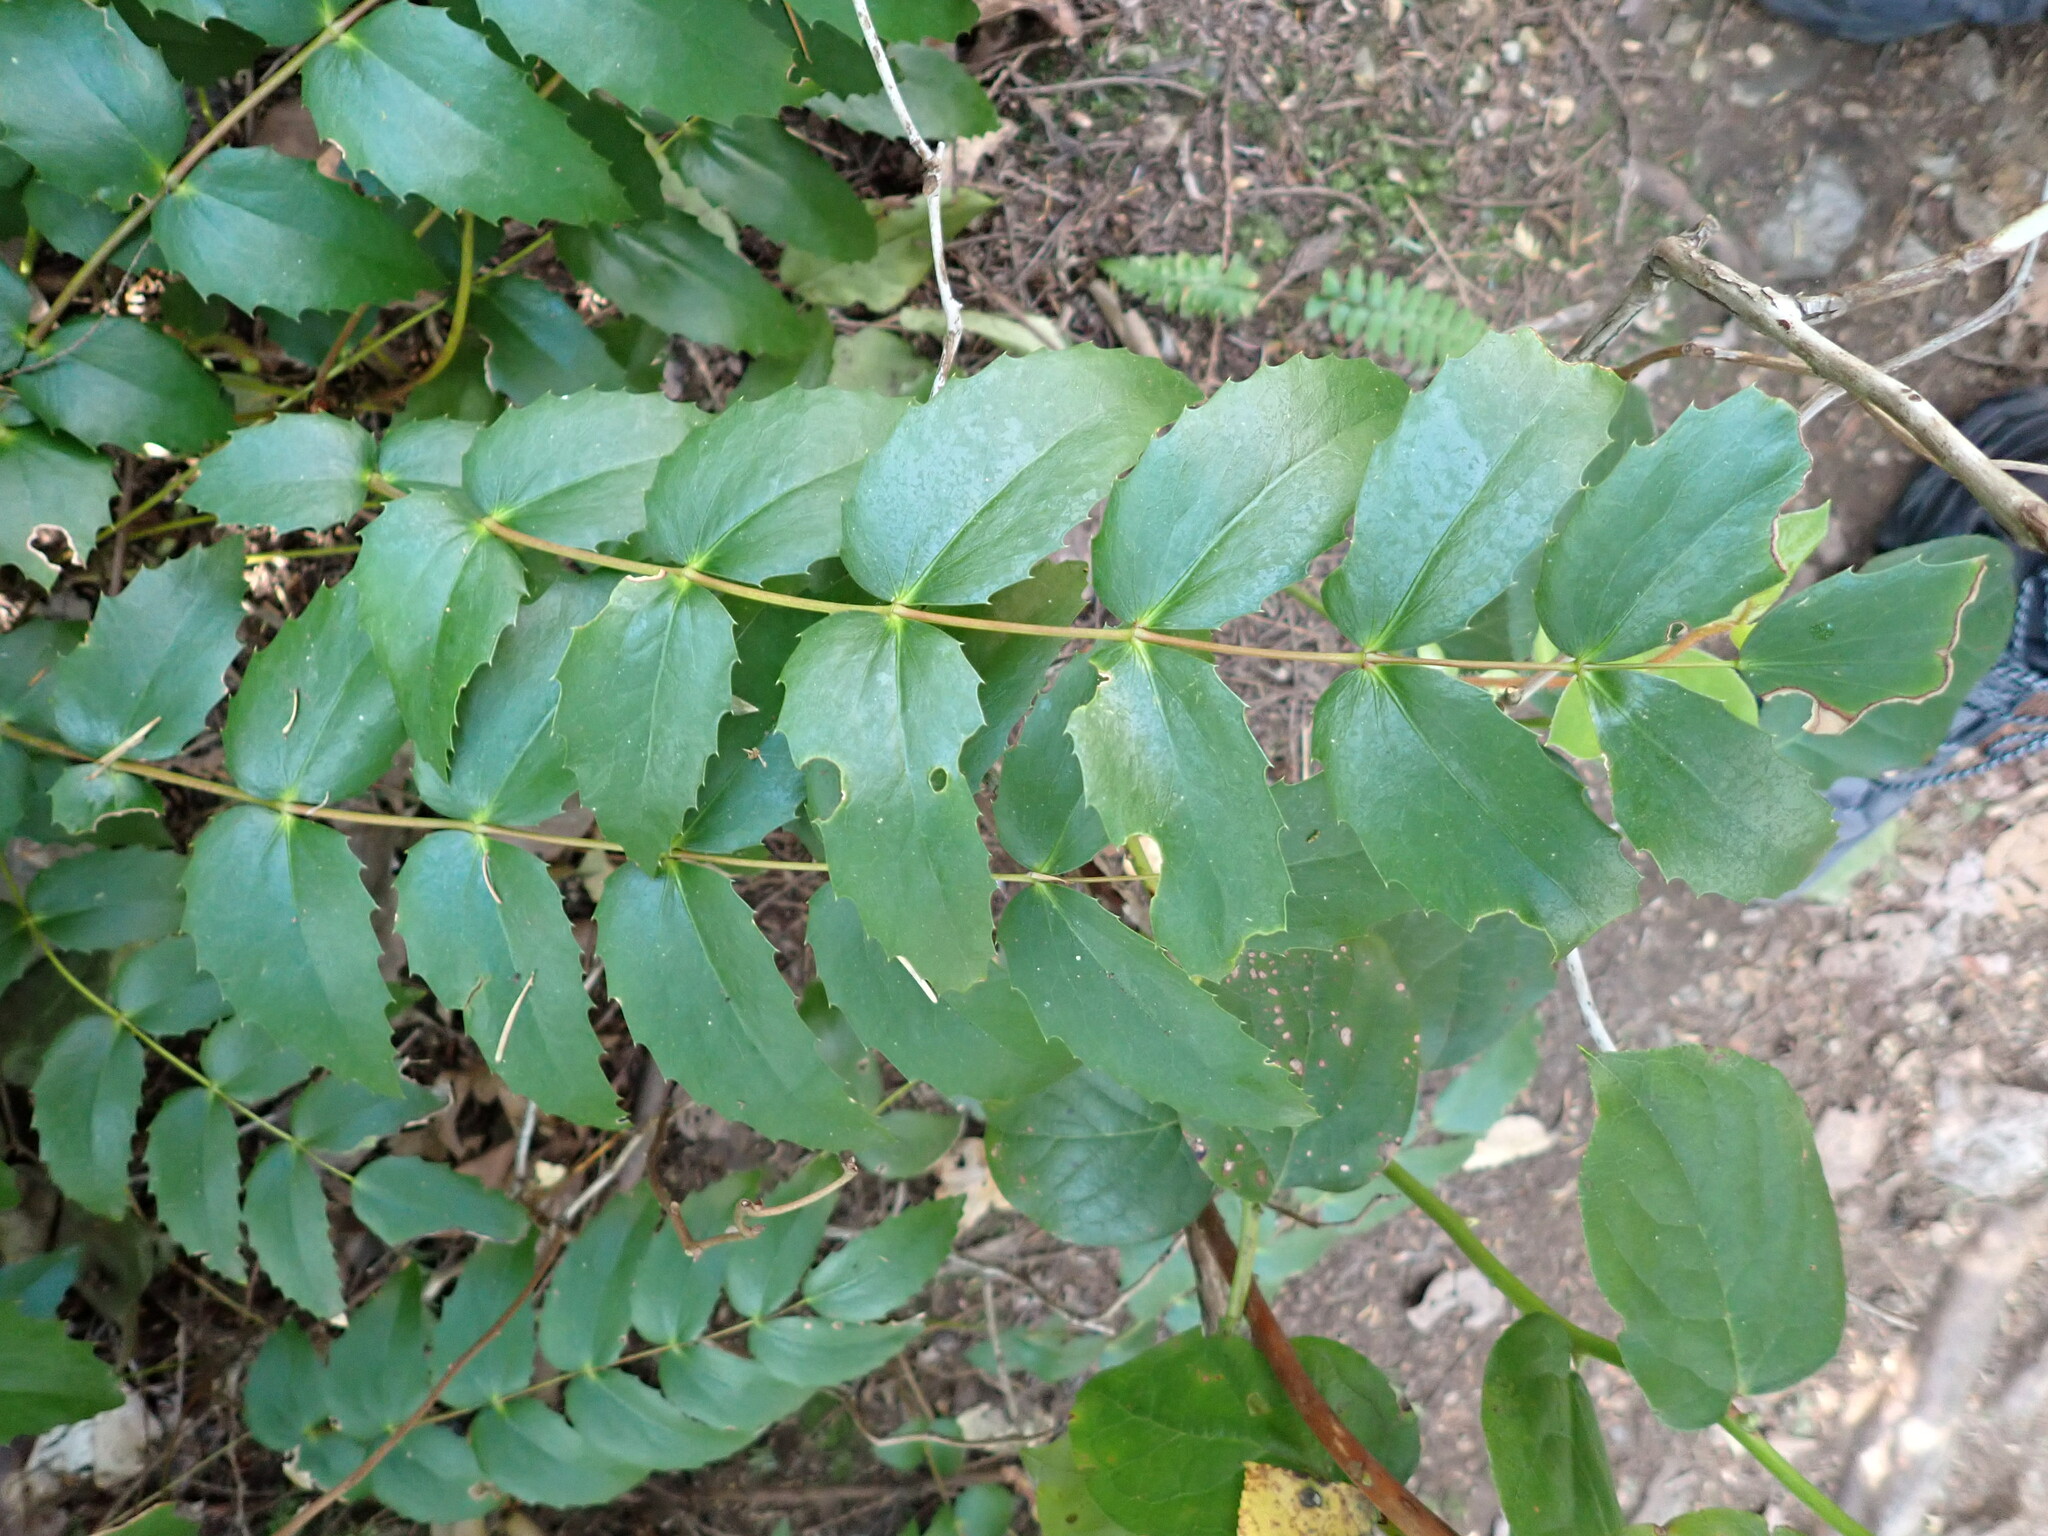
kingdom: Plantae
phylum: Tracheophyta
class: Magnoliopsida
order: Ranunculales
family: Berberidaceae
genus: Mahonia
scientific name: Mahonia nervosa
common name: Cascade oregon-grape
